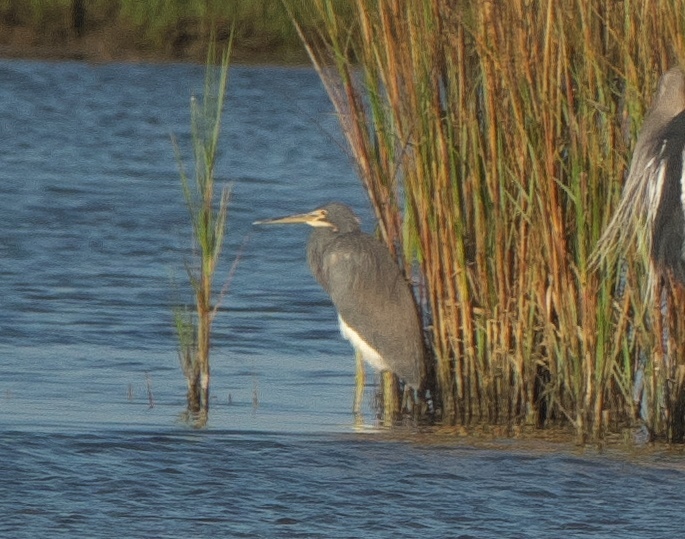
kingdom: Animalia
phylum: Chordata
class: Aves
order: Pelecaniformes
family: Ardeidae
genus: Egretta
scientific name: Egretta tricolor
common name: Tricolored heron
